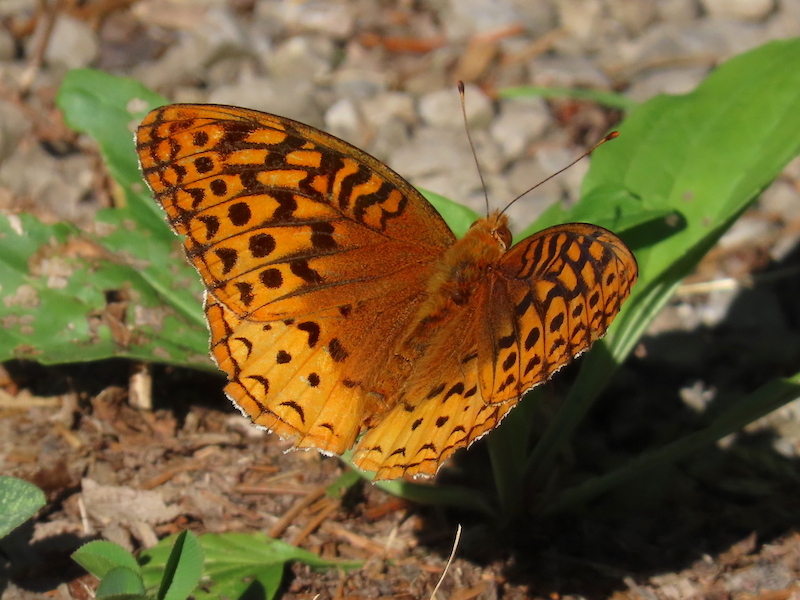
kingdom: Animalia
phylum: Arthropoda
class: Insecta
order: Lepidoptera
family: Nymphalidae
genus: Speyeria
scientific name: Speyeria cybele
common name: Great spangled fritillary
